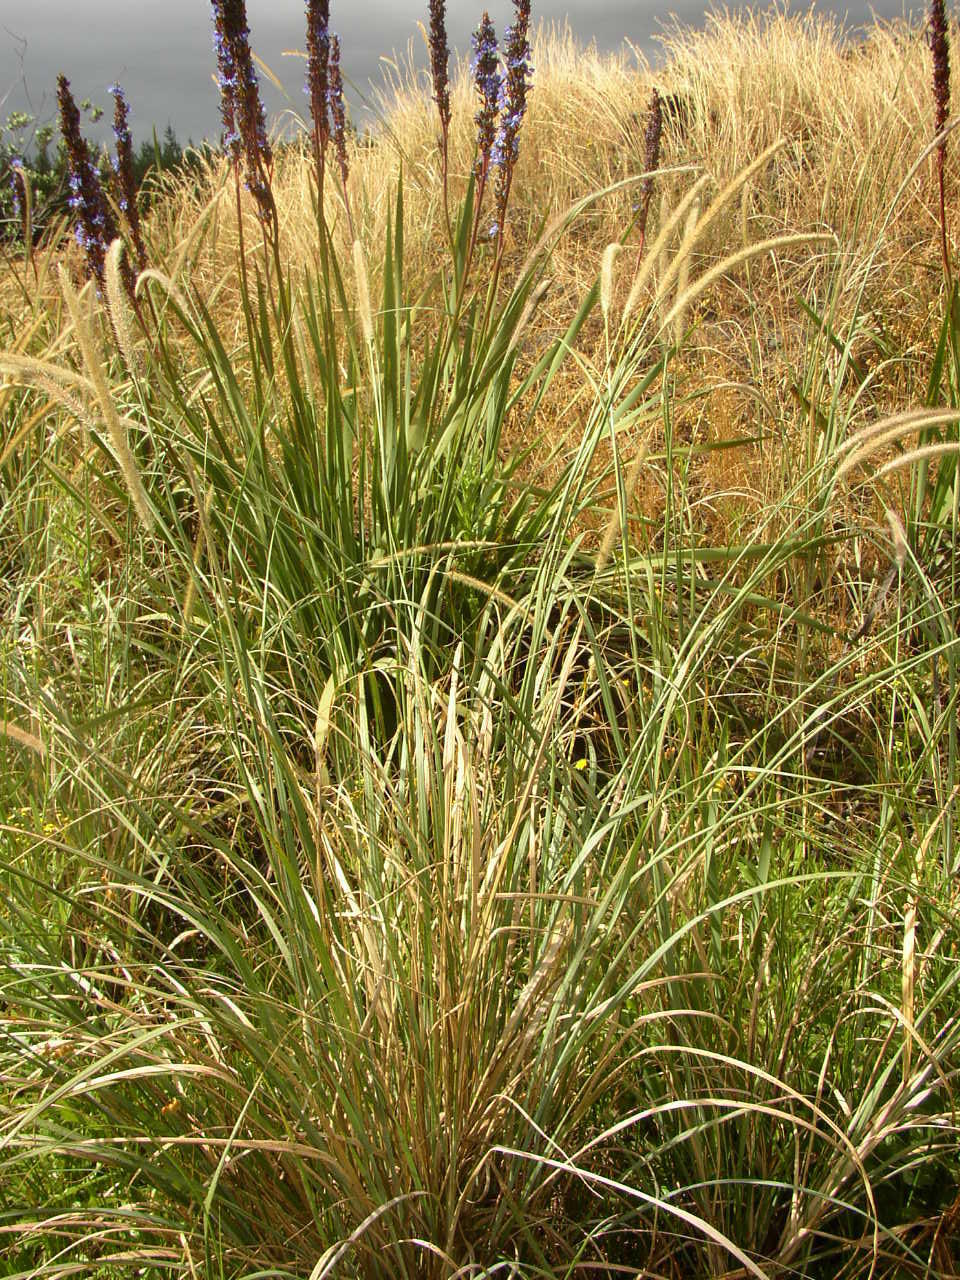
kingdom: Plantae
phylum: Tracheophyta
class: Liliopsida
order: Poales
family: Poaceae
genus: Cenchrus
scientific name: Cenchrus caudatus
